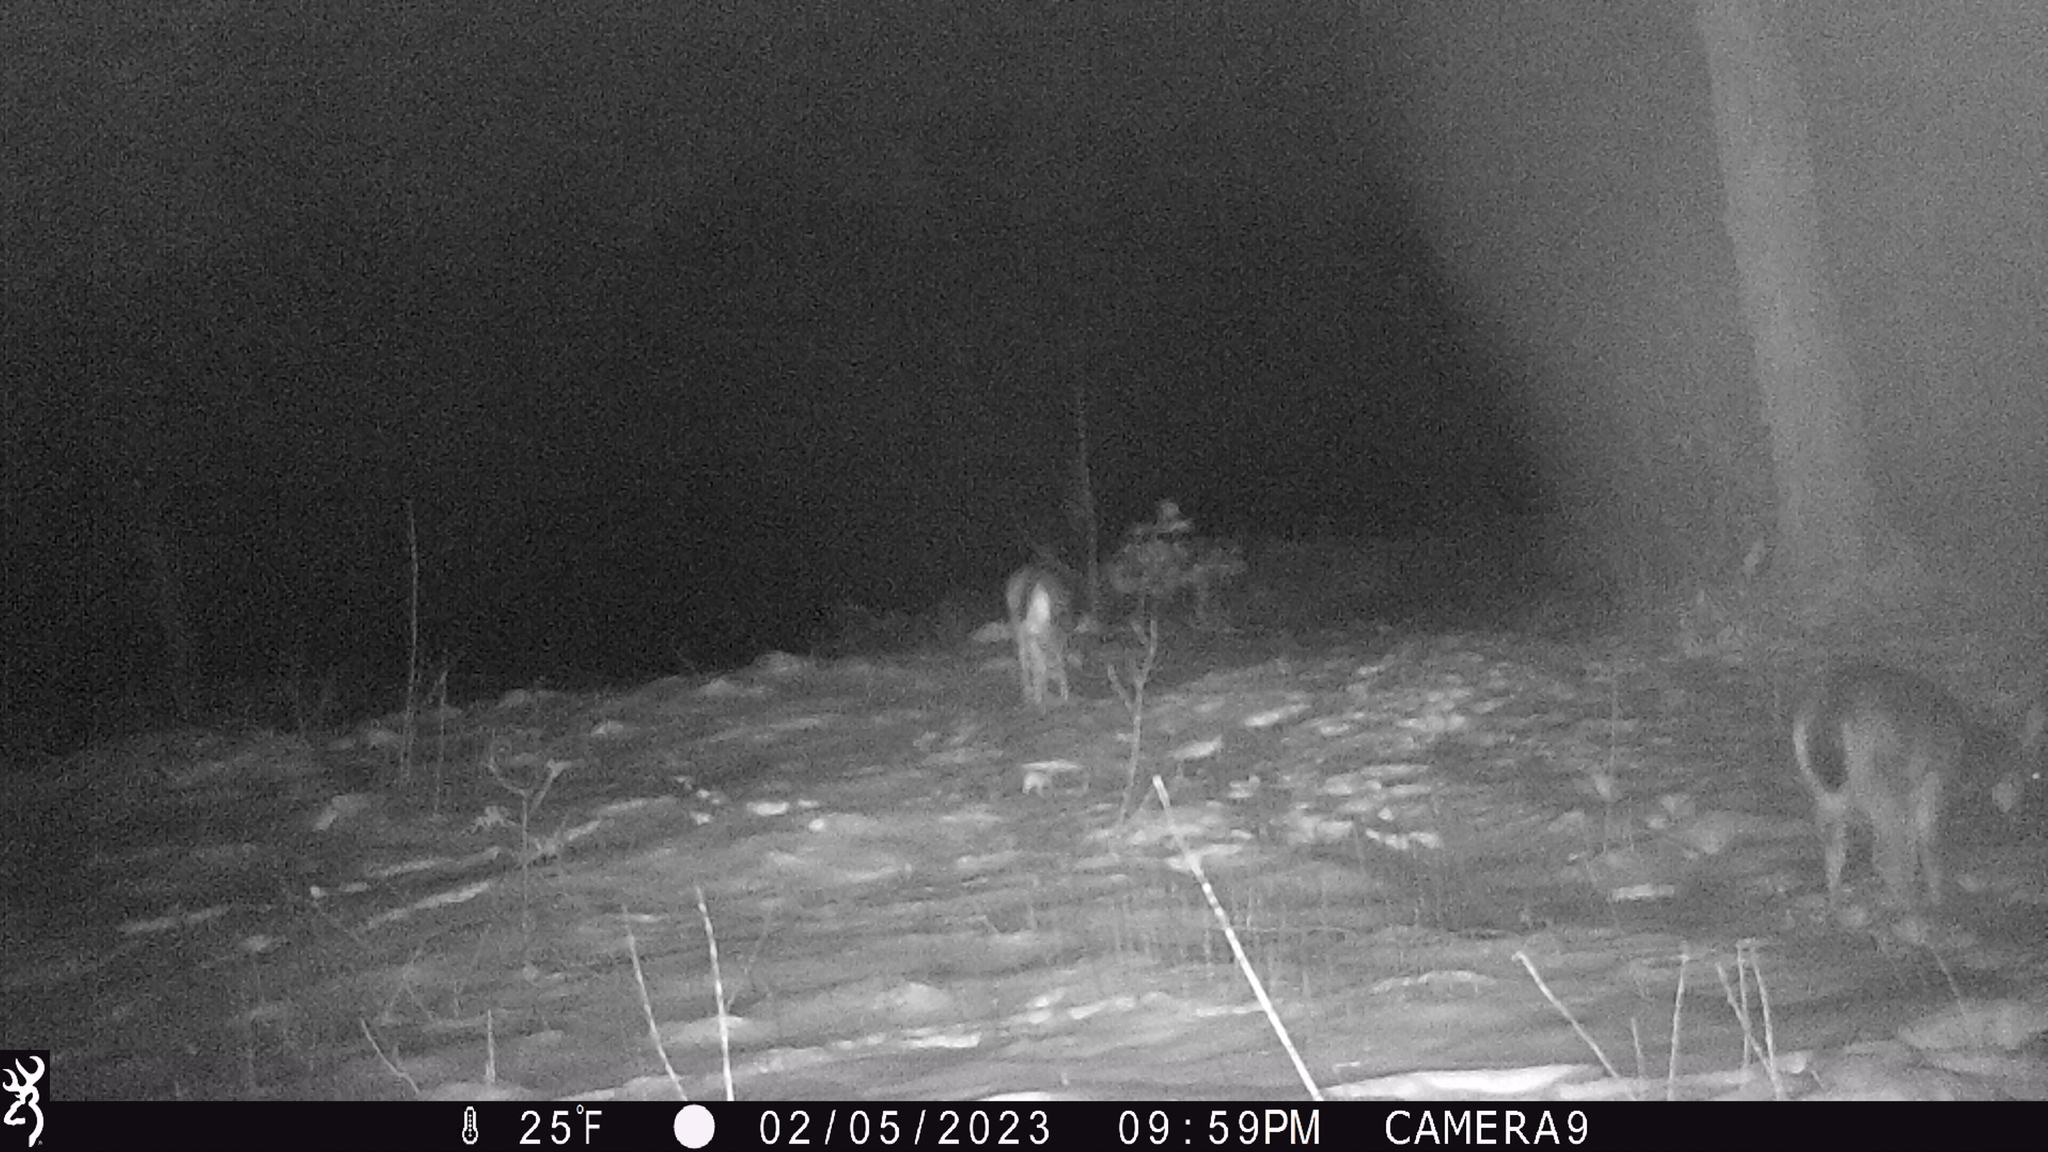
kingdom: Animalia
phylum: Chordata
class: Mammalia
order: Artiodactyla
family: Cervidae
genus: Odocoileus
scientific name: Odocoileus virginianus
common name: White-tailed deer
